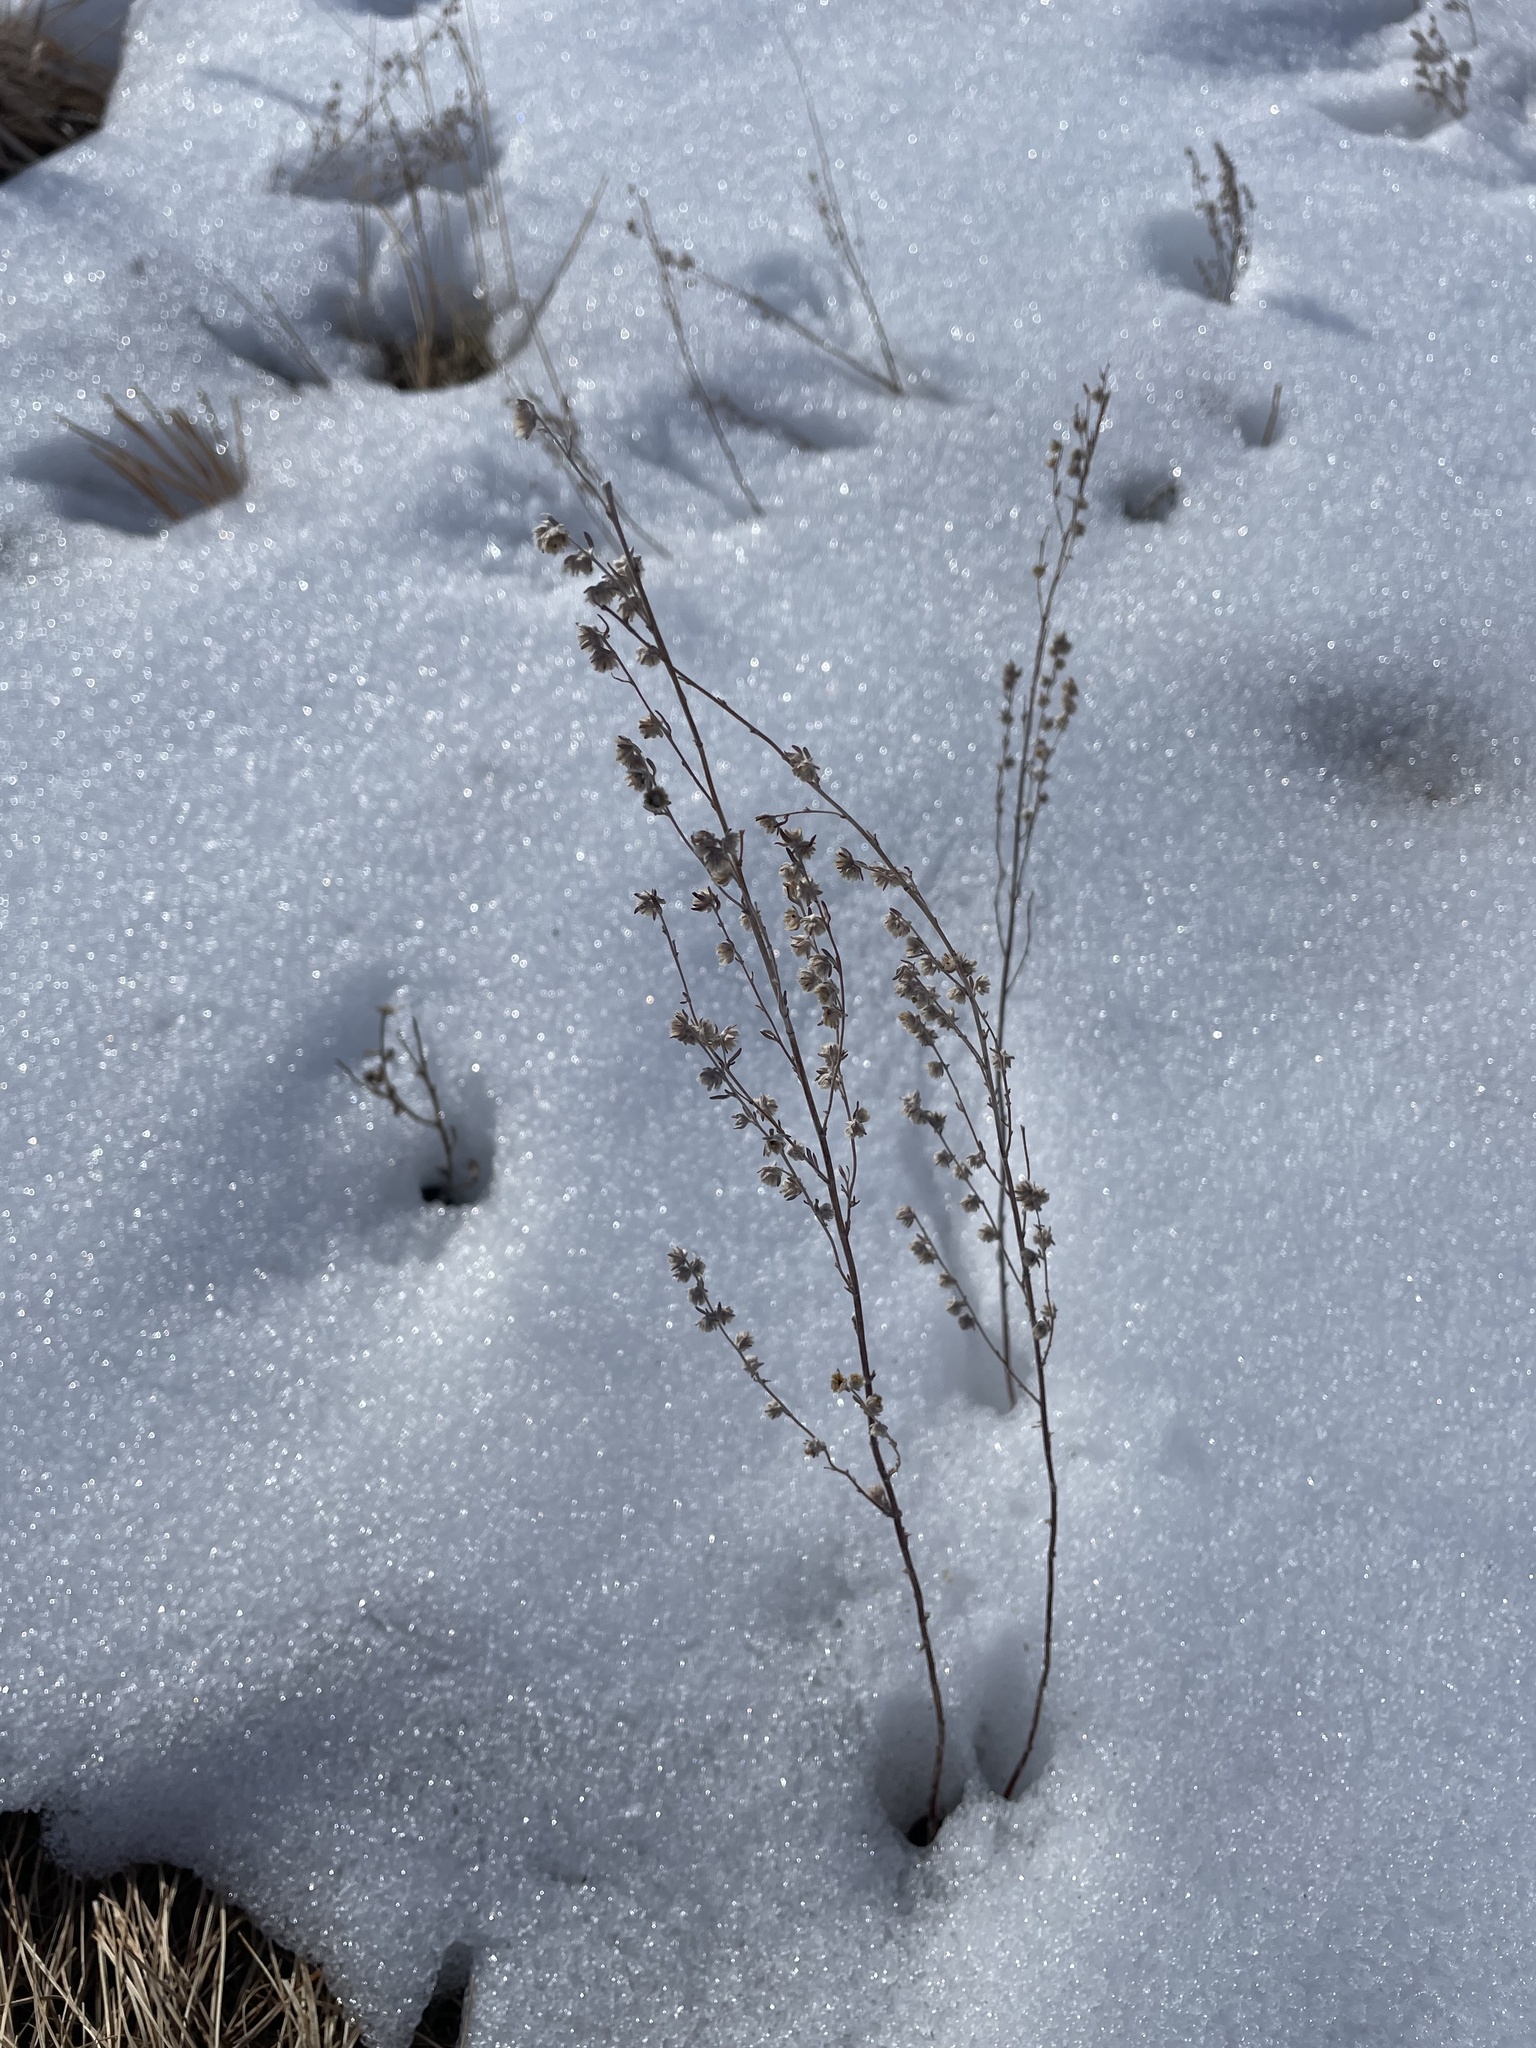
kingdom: Plantae
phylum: Tracheophyta
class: Magnoliopsida
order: Asterales
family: Asteraceae
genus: Artemisia
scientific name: Artemisia frigida
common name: Prairie sagewort
